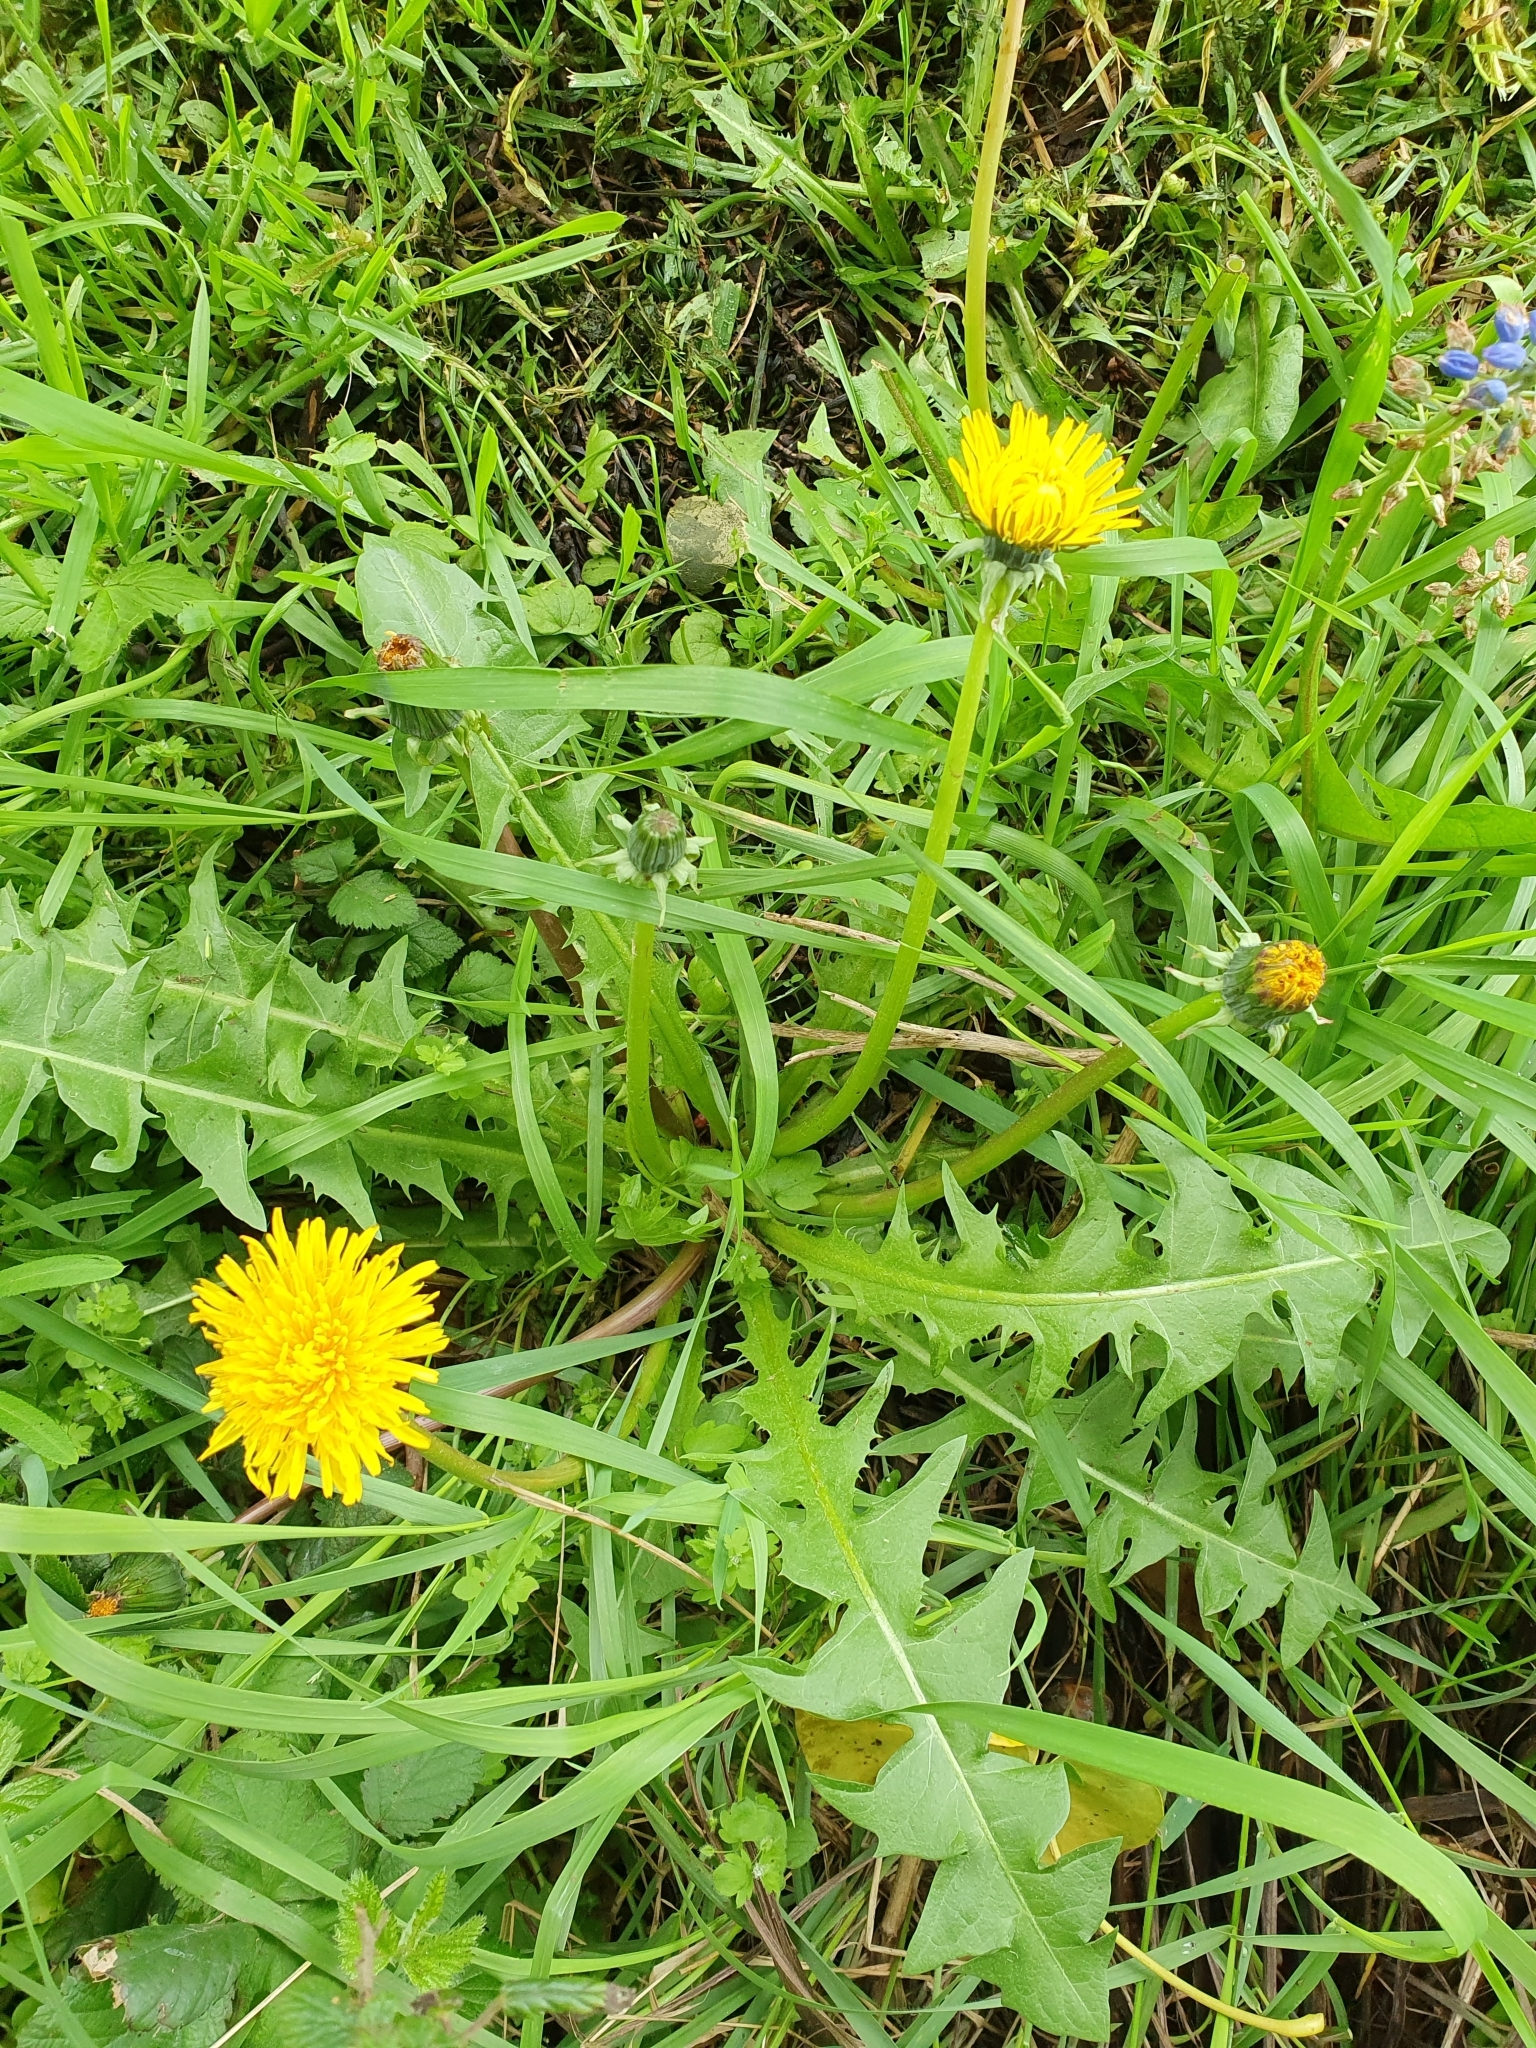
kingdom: Plantae
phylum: Tracheophyta
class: Magnoliopsida
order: Asterales
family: Asteraceae
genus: Taraxacum
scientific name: Taraxacum officinale
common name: Common dandelion
